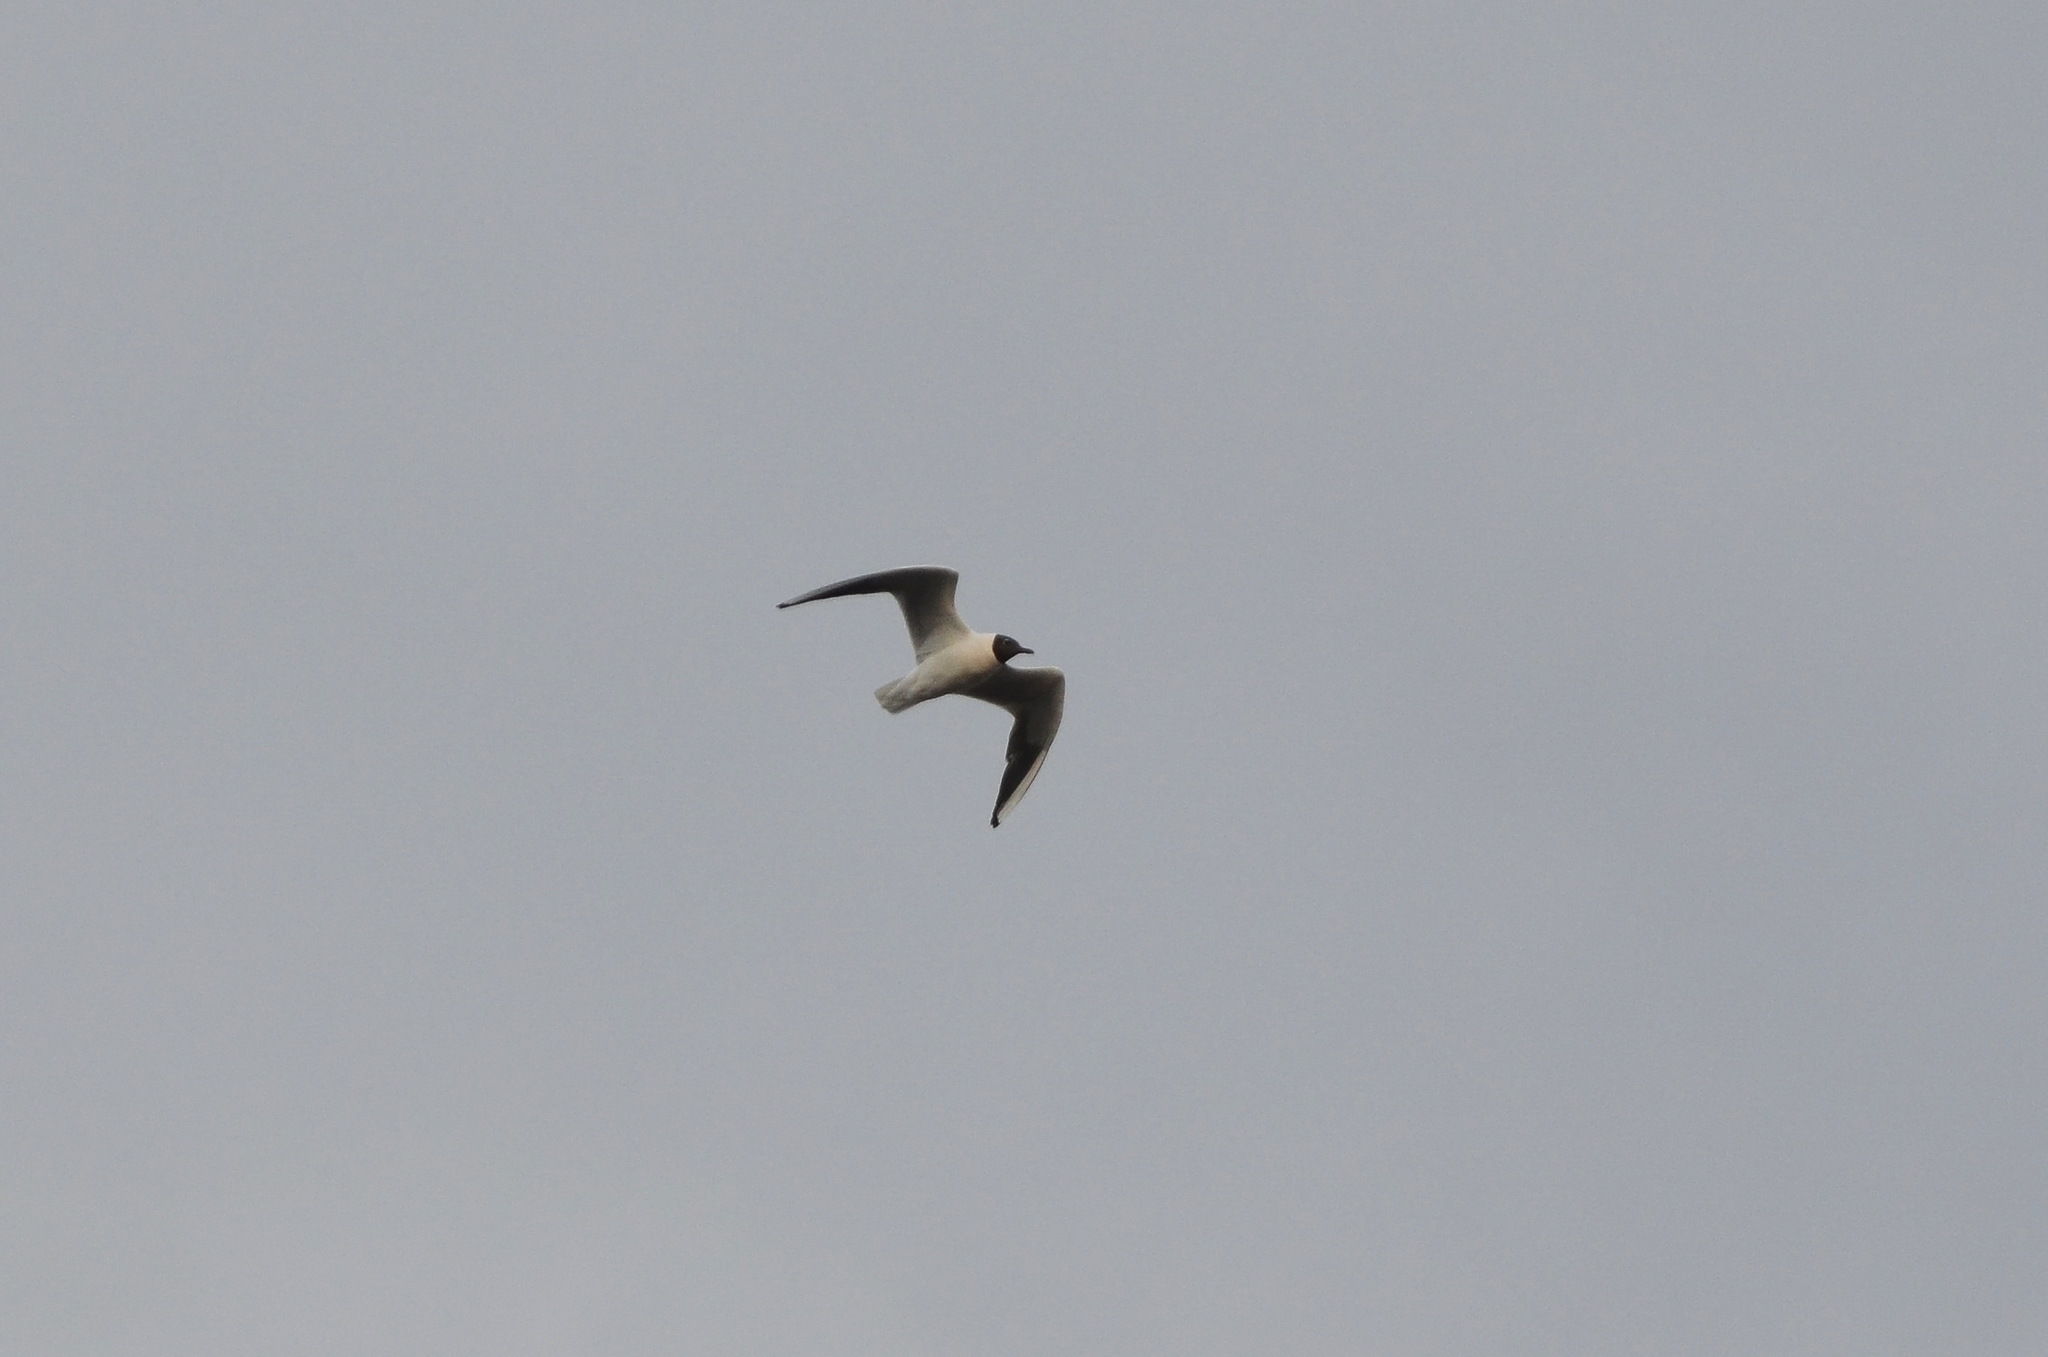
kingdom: Animalia
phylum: Chordata
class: Aves
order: Charadriiformes
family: Laridae
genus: Chroicocephalus
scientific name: Chroicocephalus ridibundus
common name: Black-headed gull
